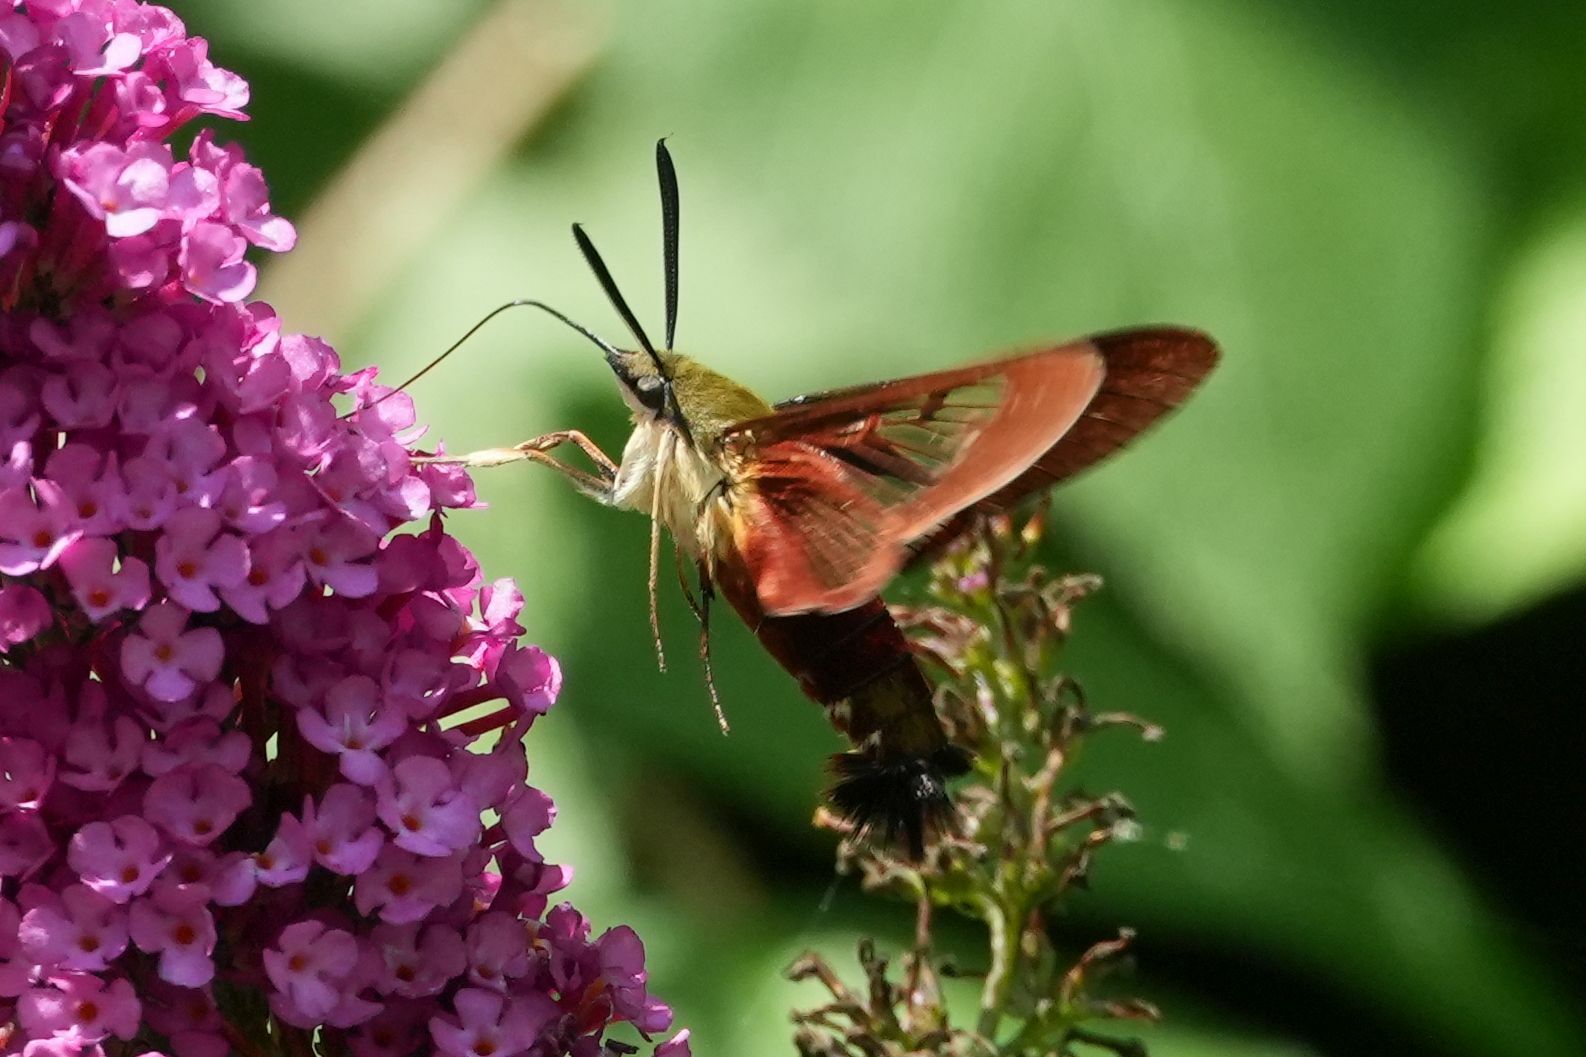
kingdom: Animalia
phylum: Arthropoda
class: Insecta
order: Lepidoptera
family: Sphingidae
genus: Hemaris
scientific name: Hemaris thysbe
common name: Common clear-wing
